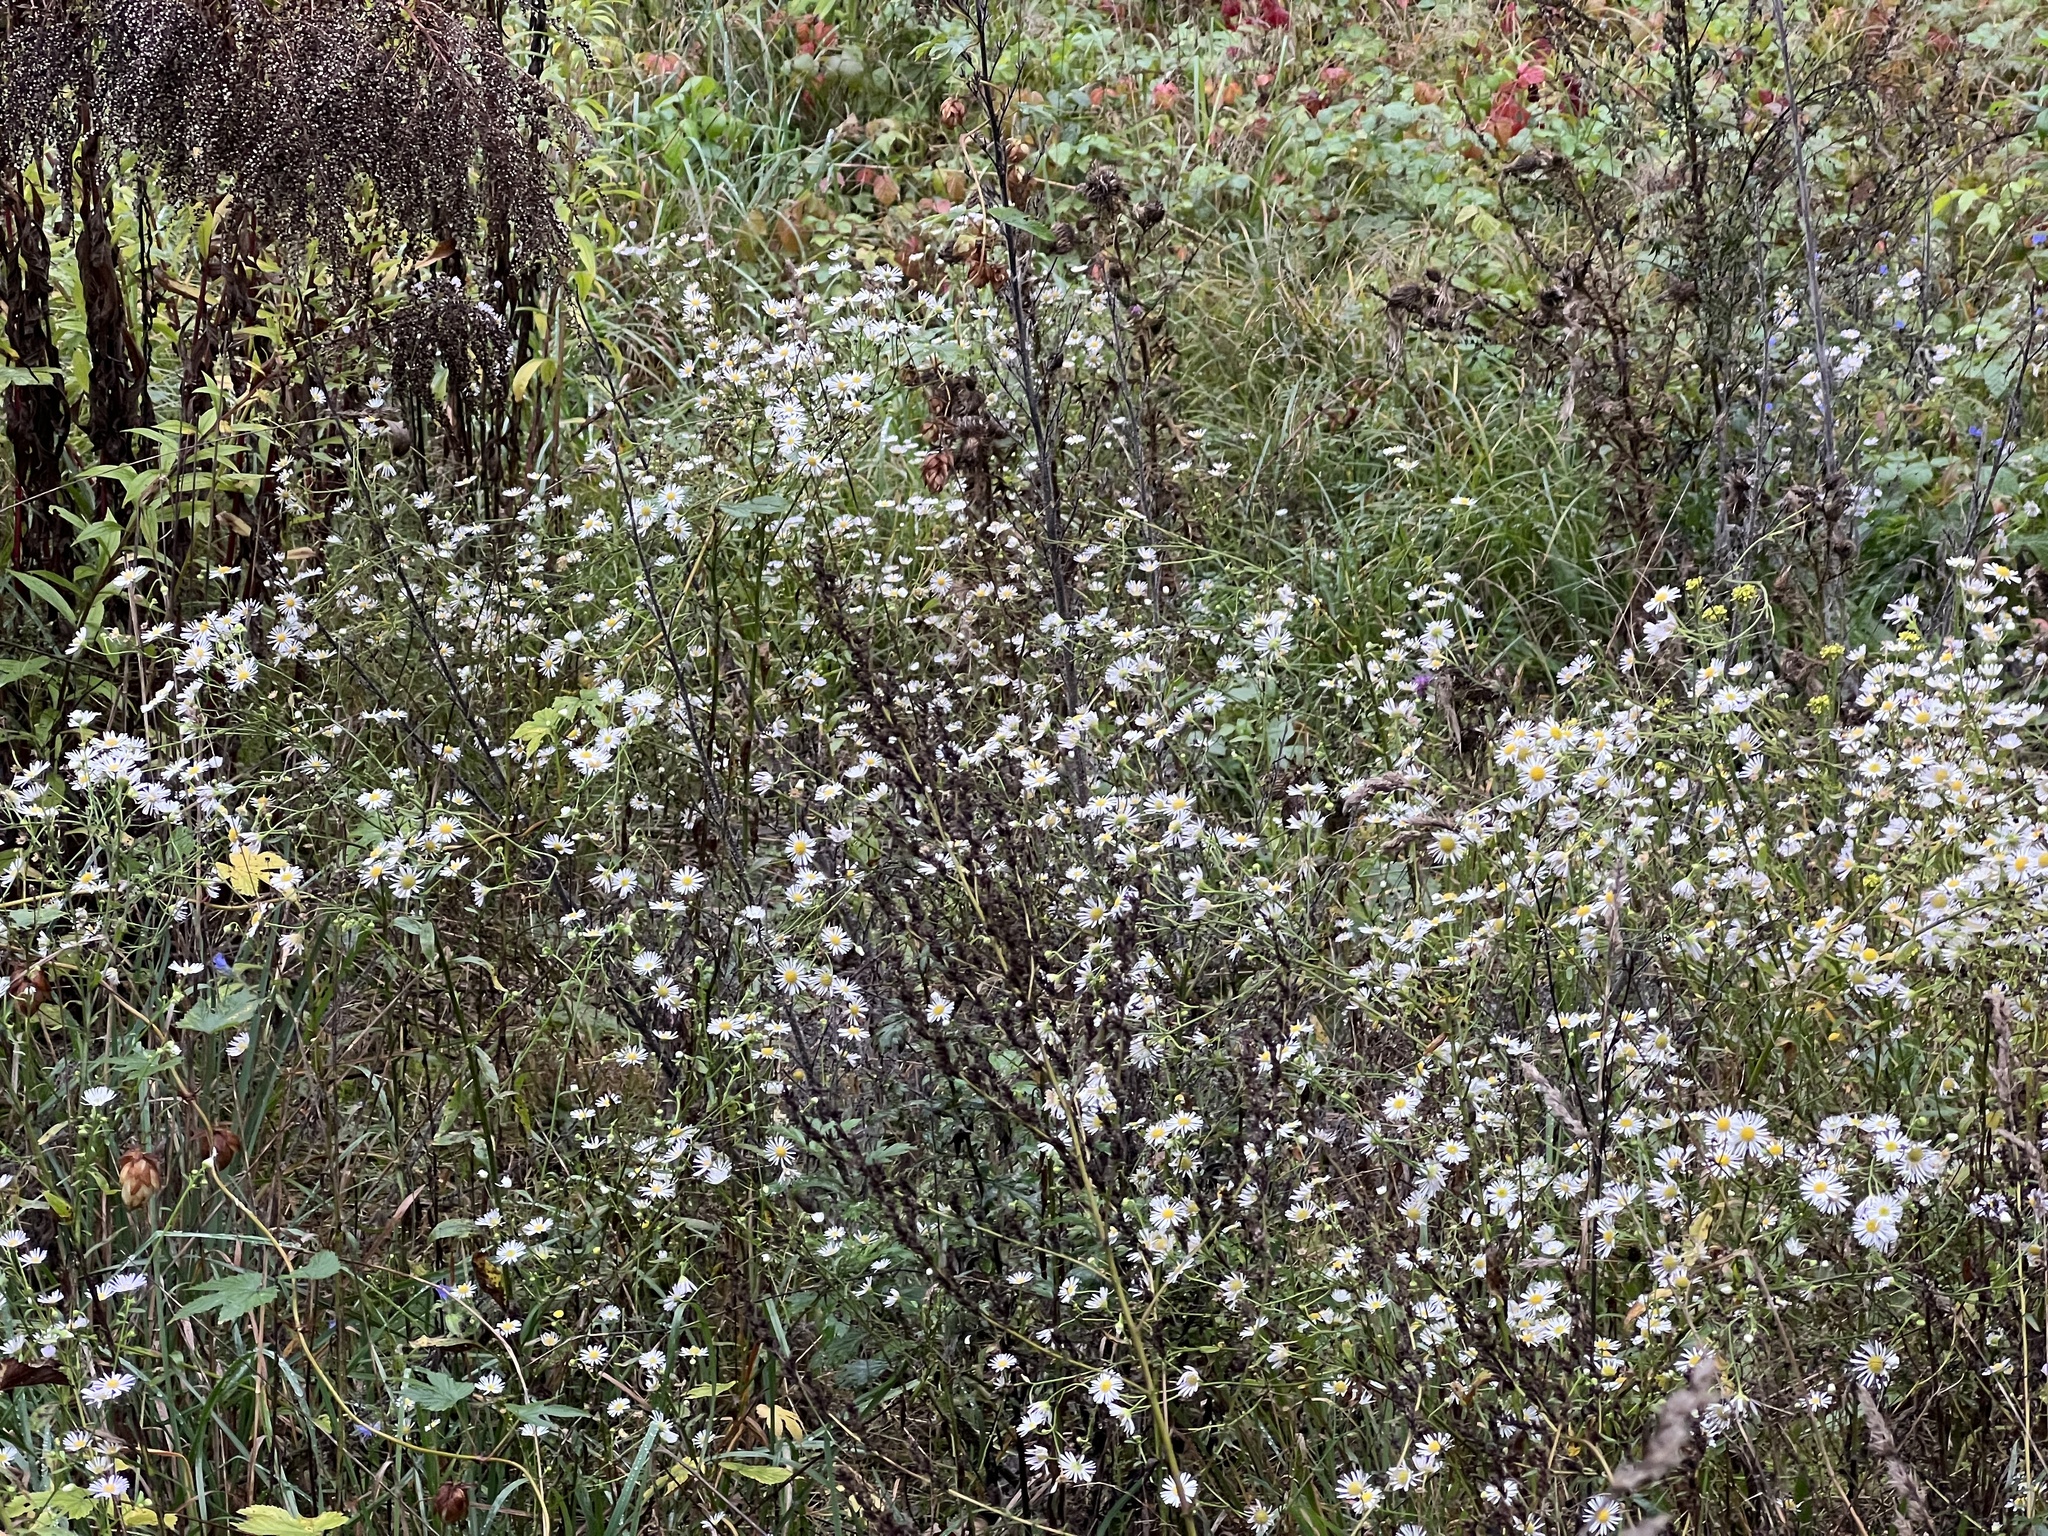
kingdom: Plantae
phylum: Tracheophyta
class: Magnoliopsida
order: Asterales
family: Asteraceae
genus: Erigeron
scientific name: Erigeron annuus
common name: Tall fleabane
